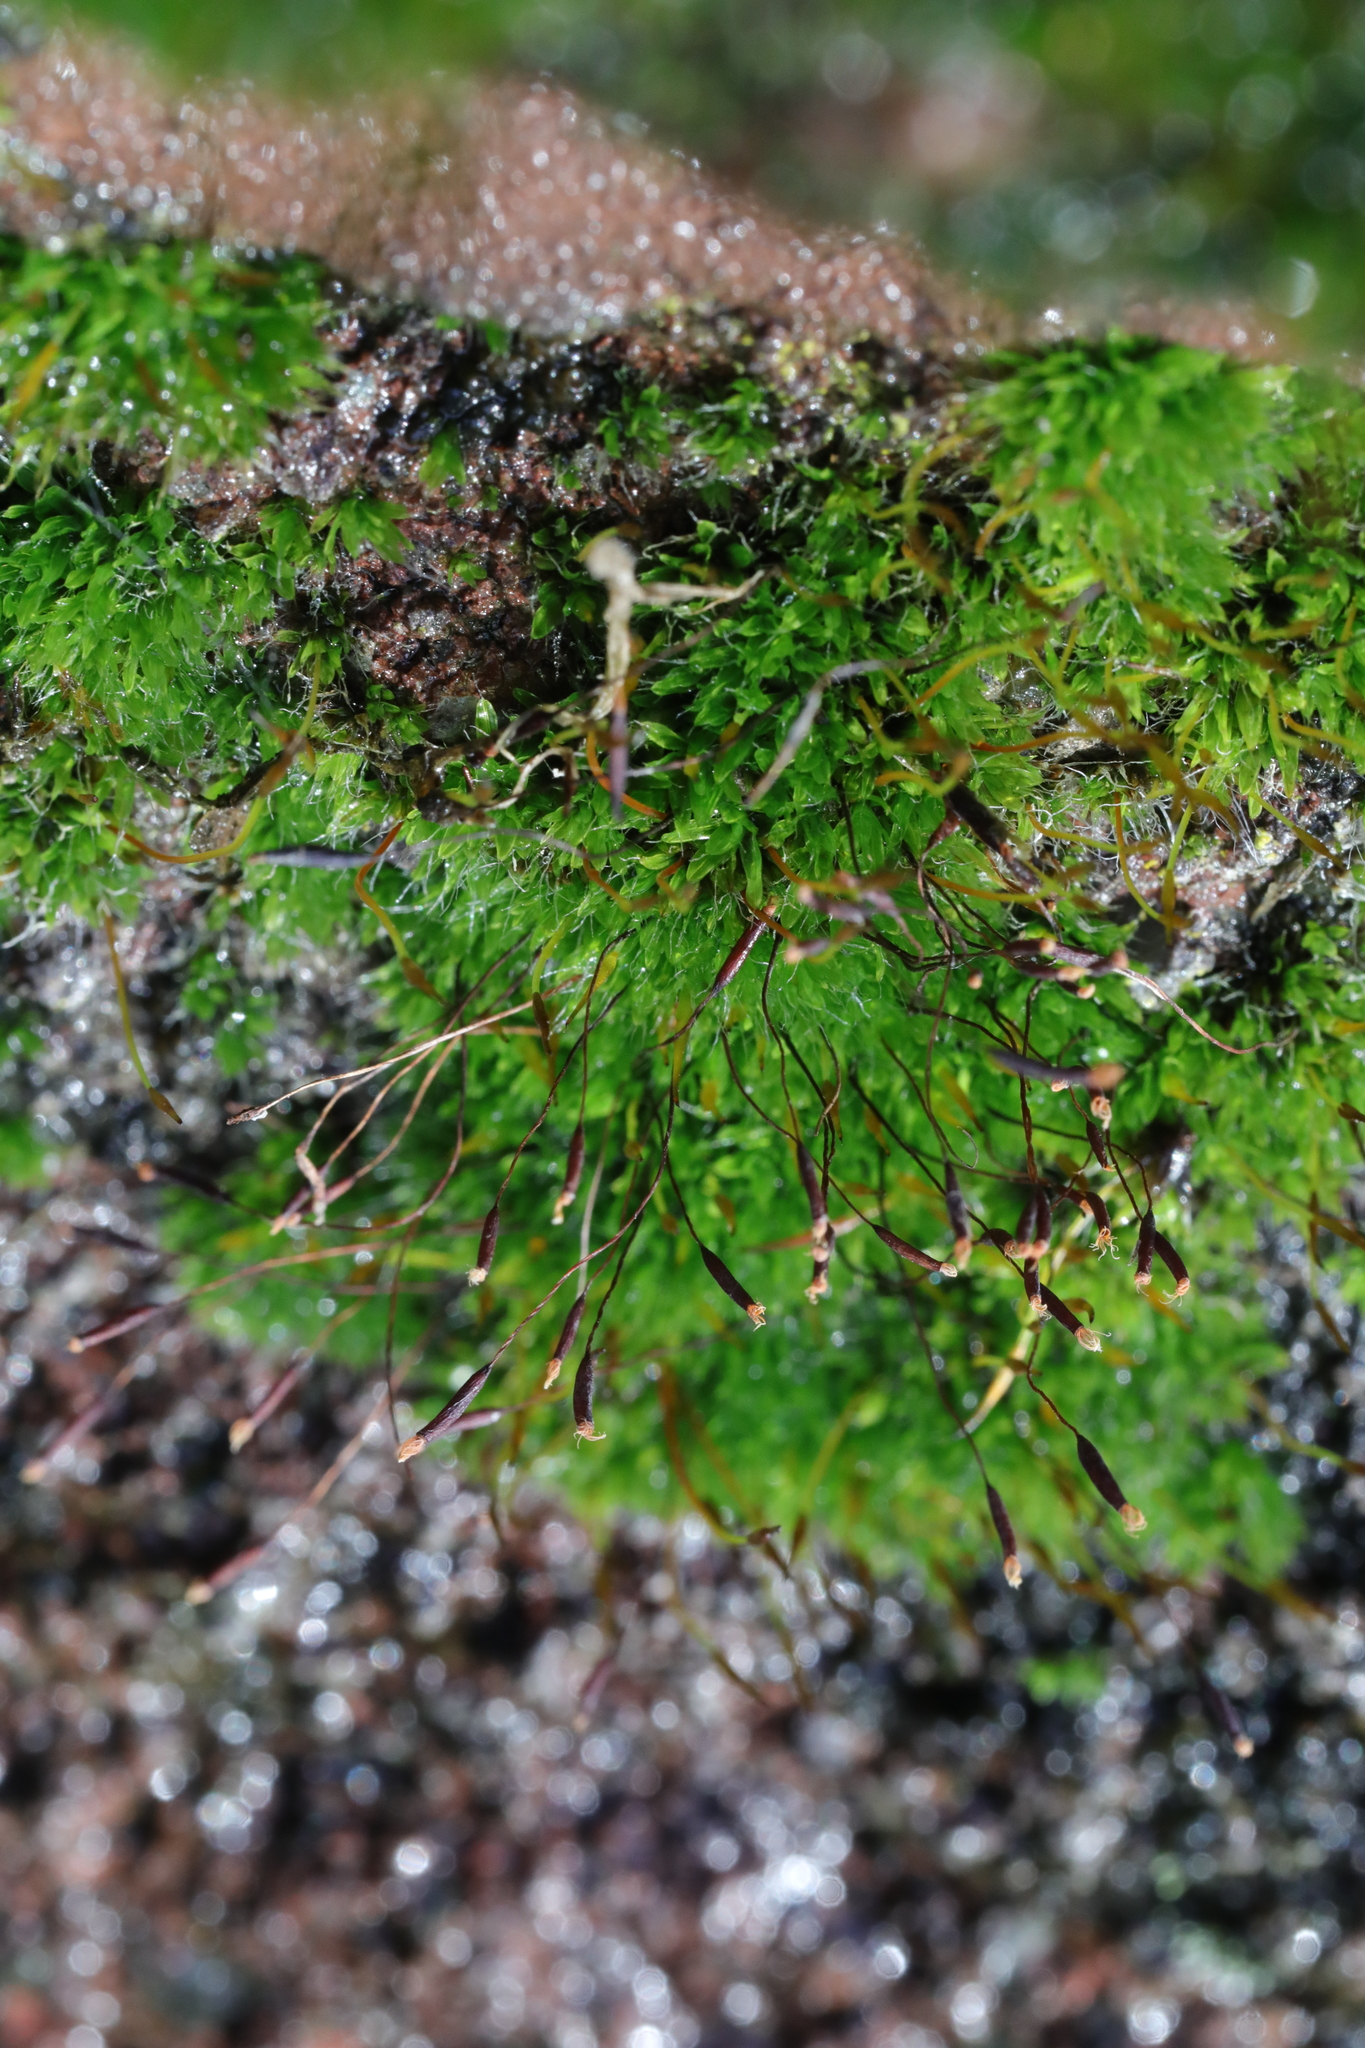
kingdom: Plantae
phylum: Bryophyta
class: Bryopsida
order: Pottiales
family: Pottiaceae
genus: Tortula
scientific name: Tortula muralis
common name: Wall screw-moss
